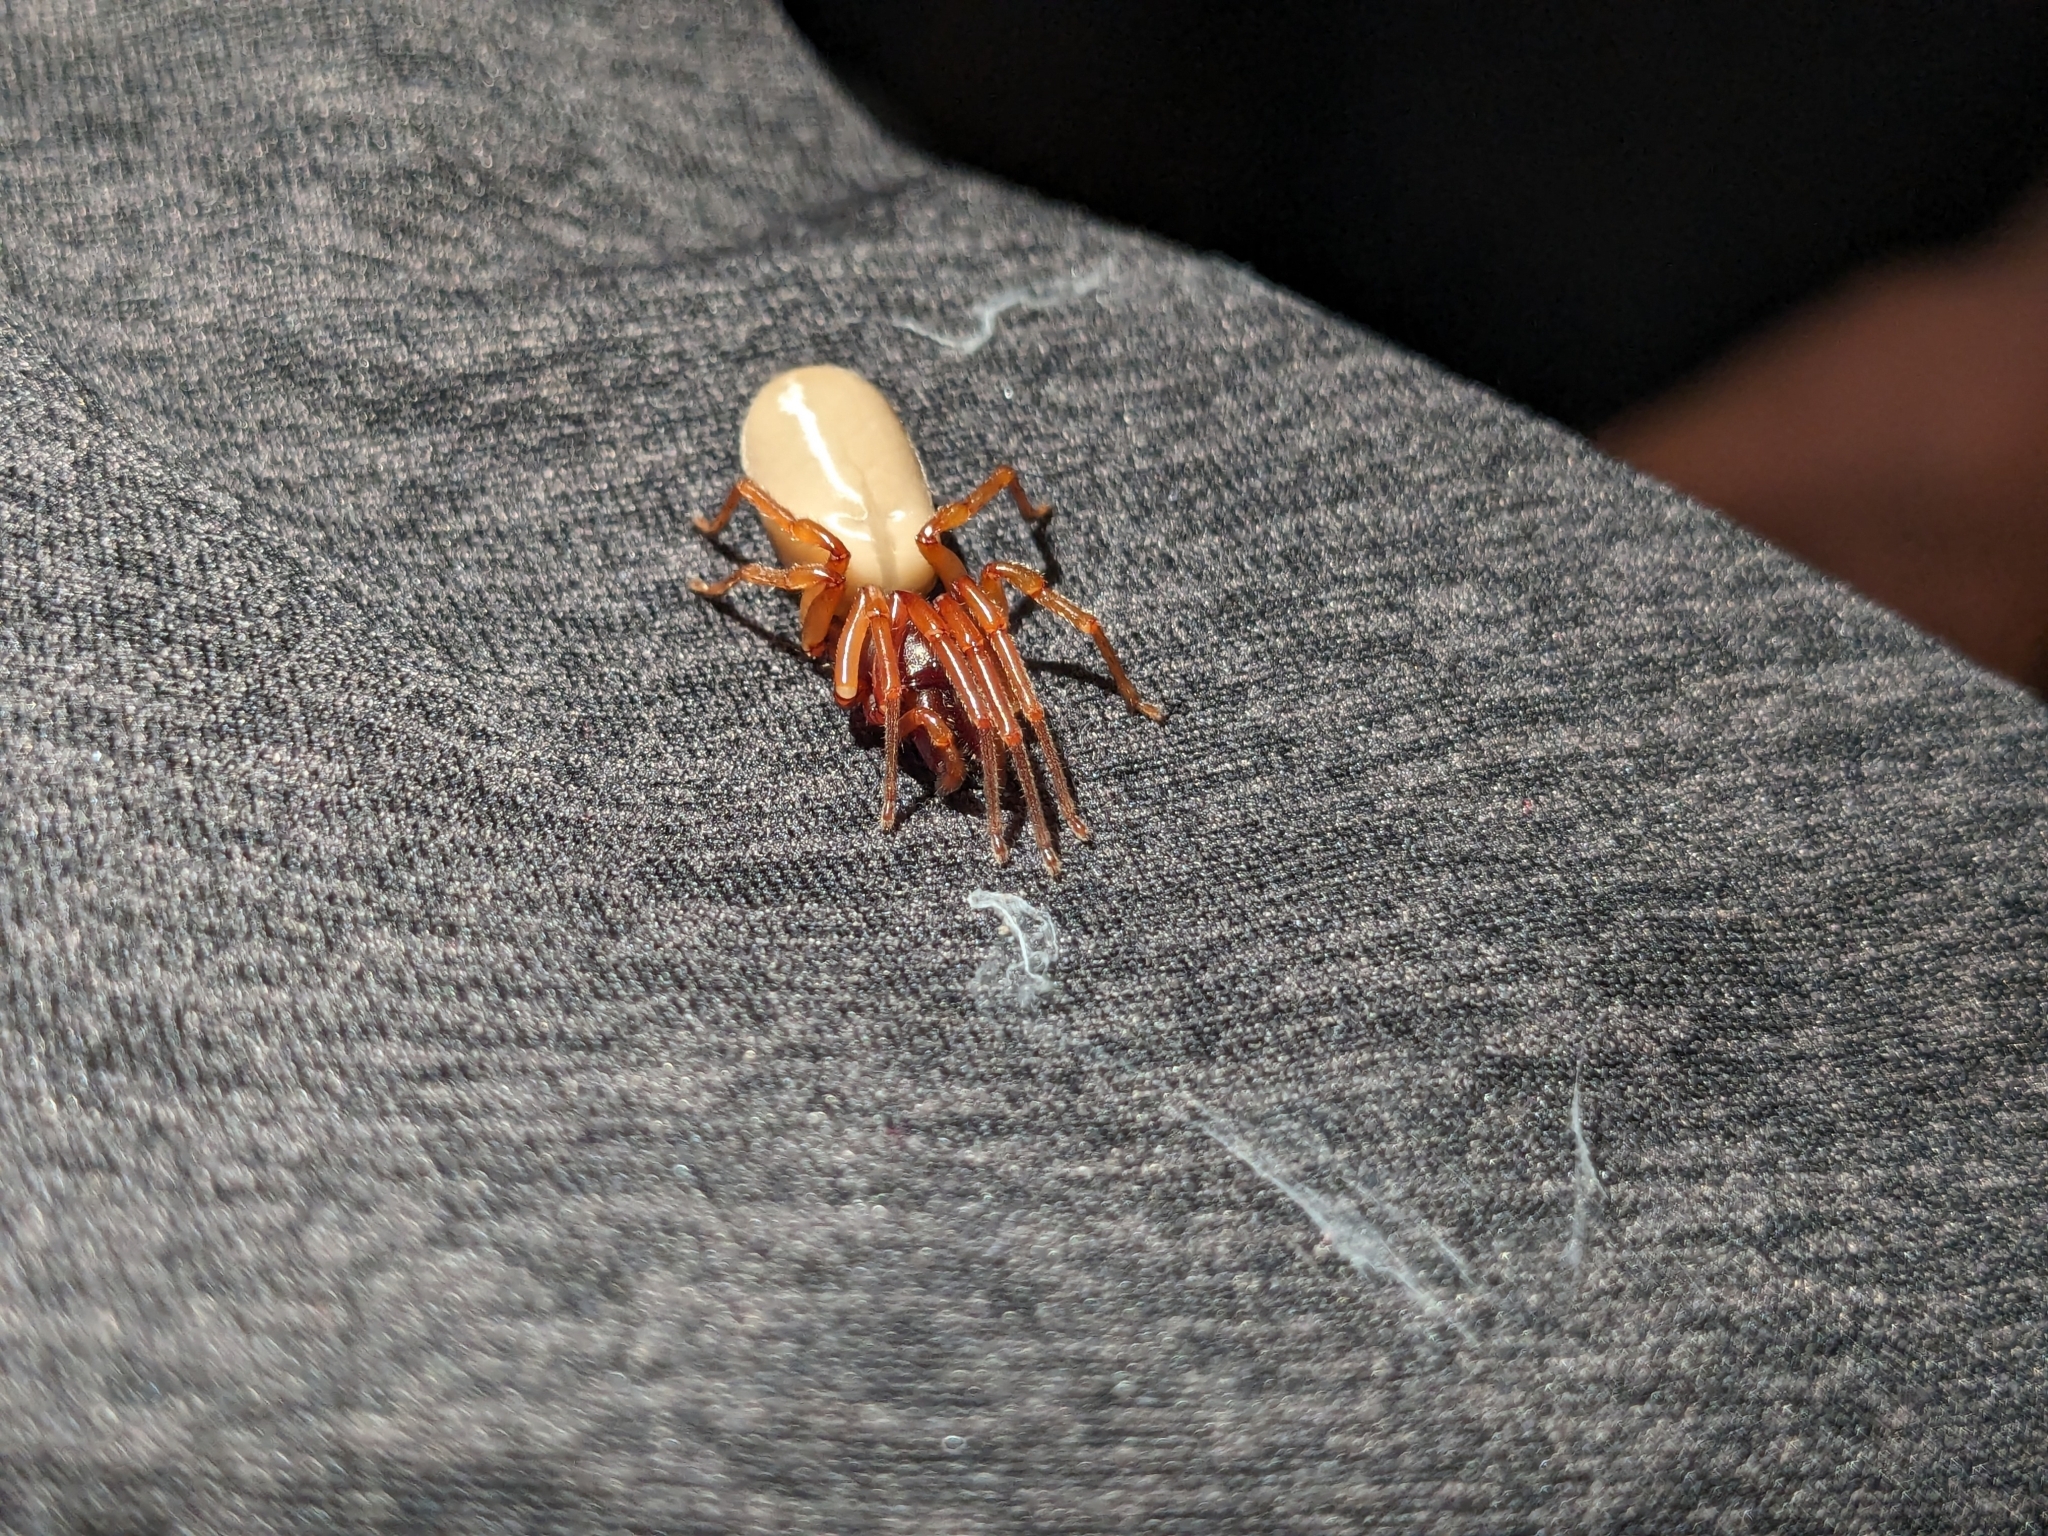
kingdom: Animalia
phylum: Arthropoda
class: Arachnida
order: Araneae
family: Dysderidae
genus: Dysdera
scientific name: Dysdera crocata
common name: Woodlouse spider
